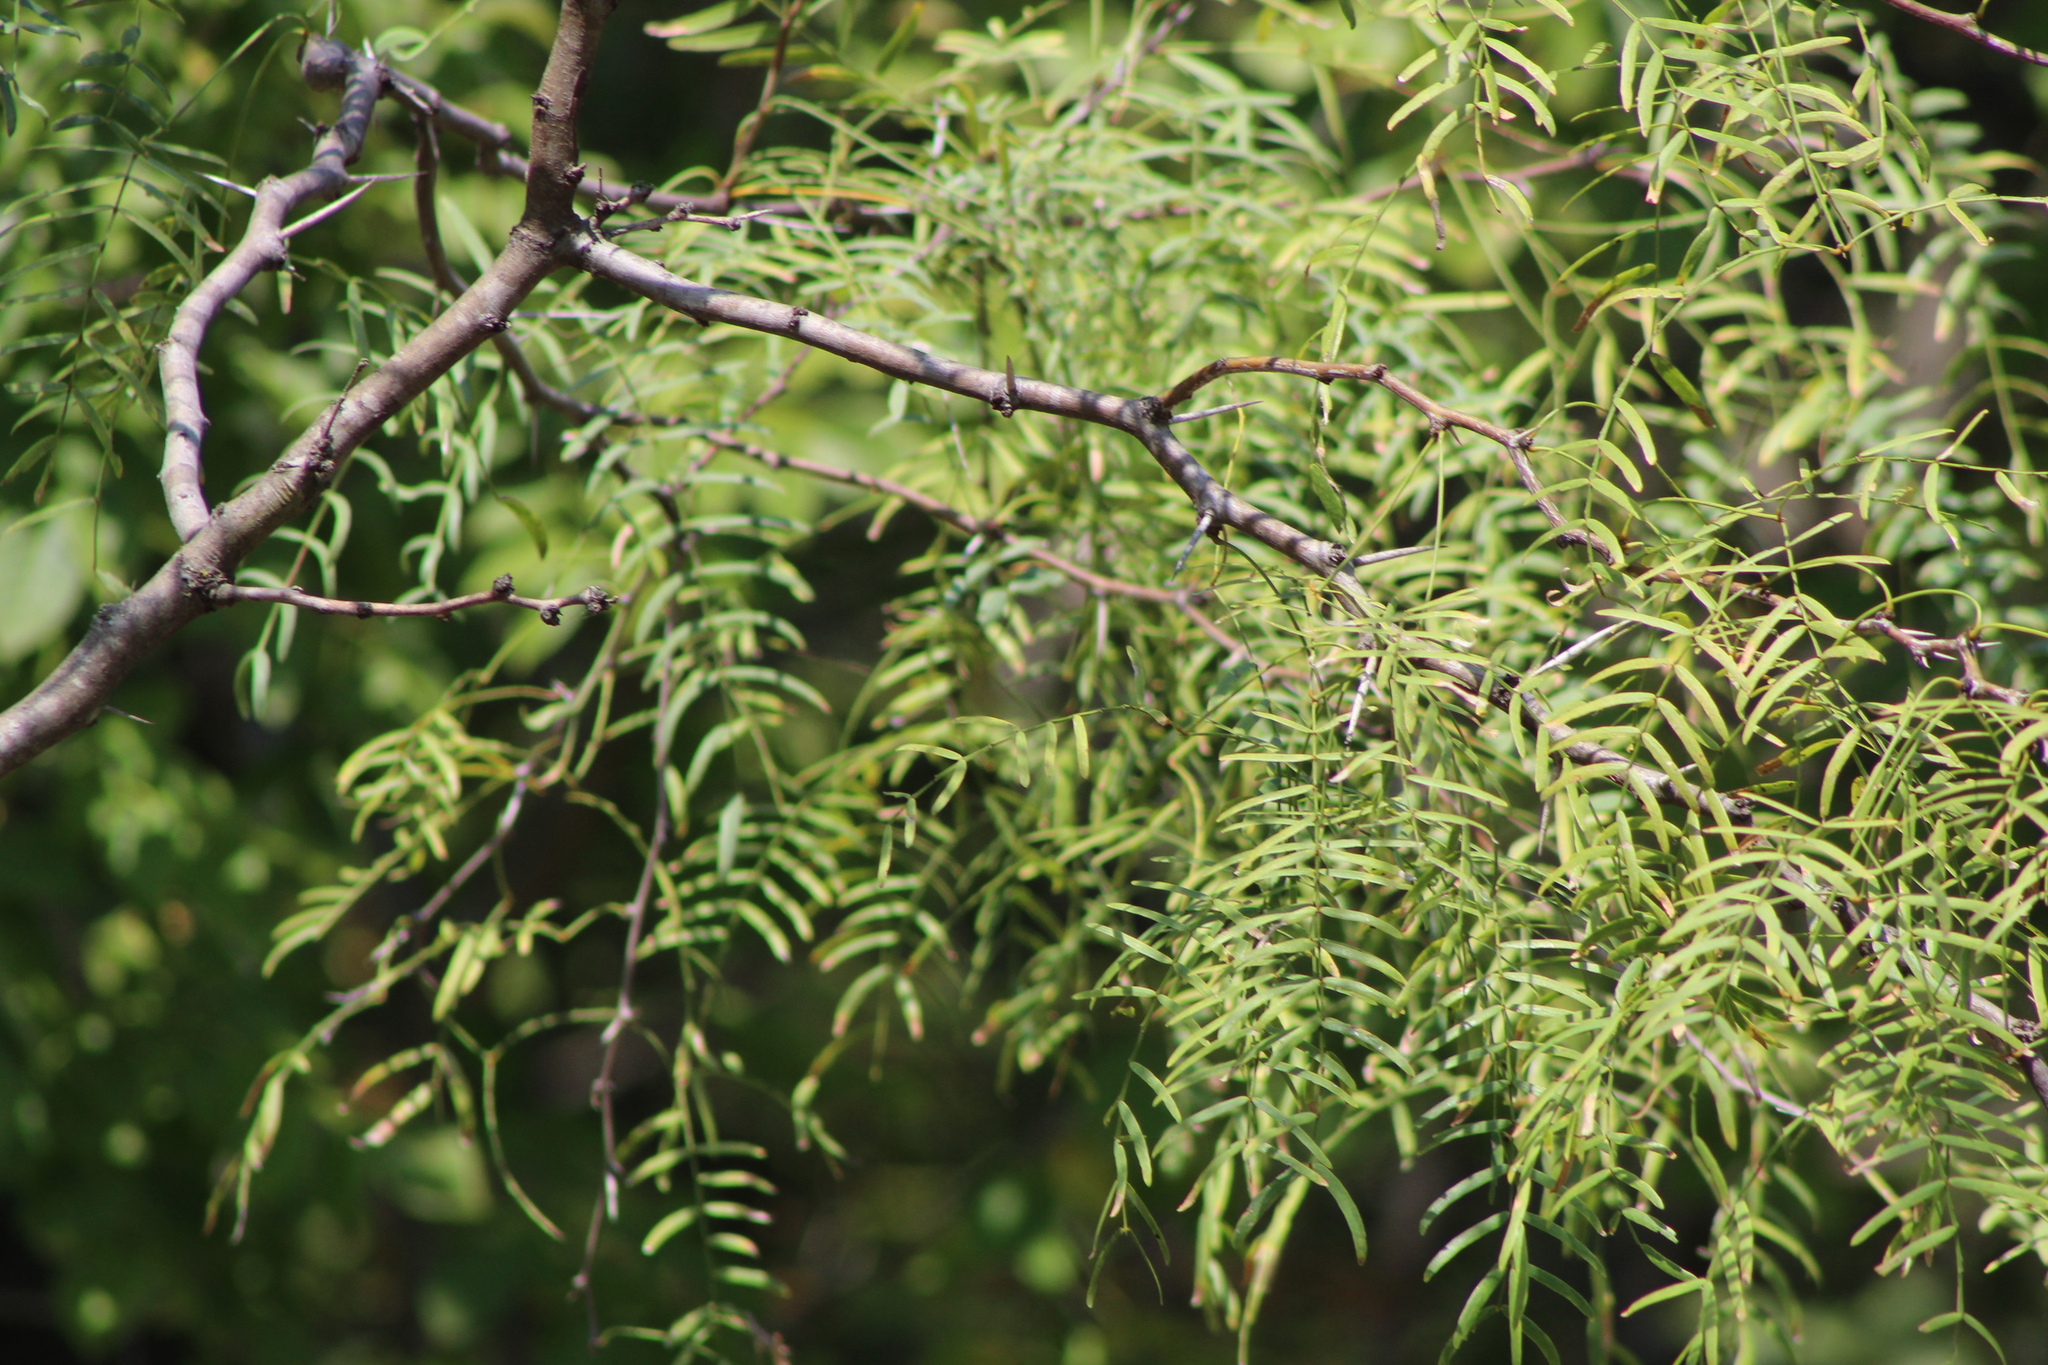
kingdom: Plantae
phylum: Tracheophyta
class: Magnoliopsida
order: Fabales
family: Fabaceae
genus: Prosopis
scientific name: Prosopis glandulosa
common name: Honey mesquite
